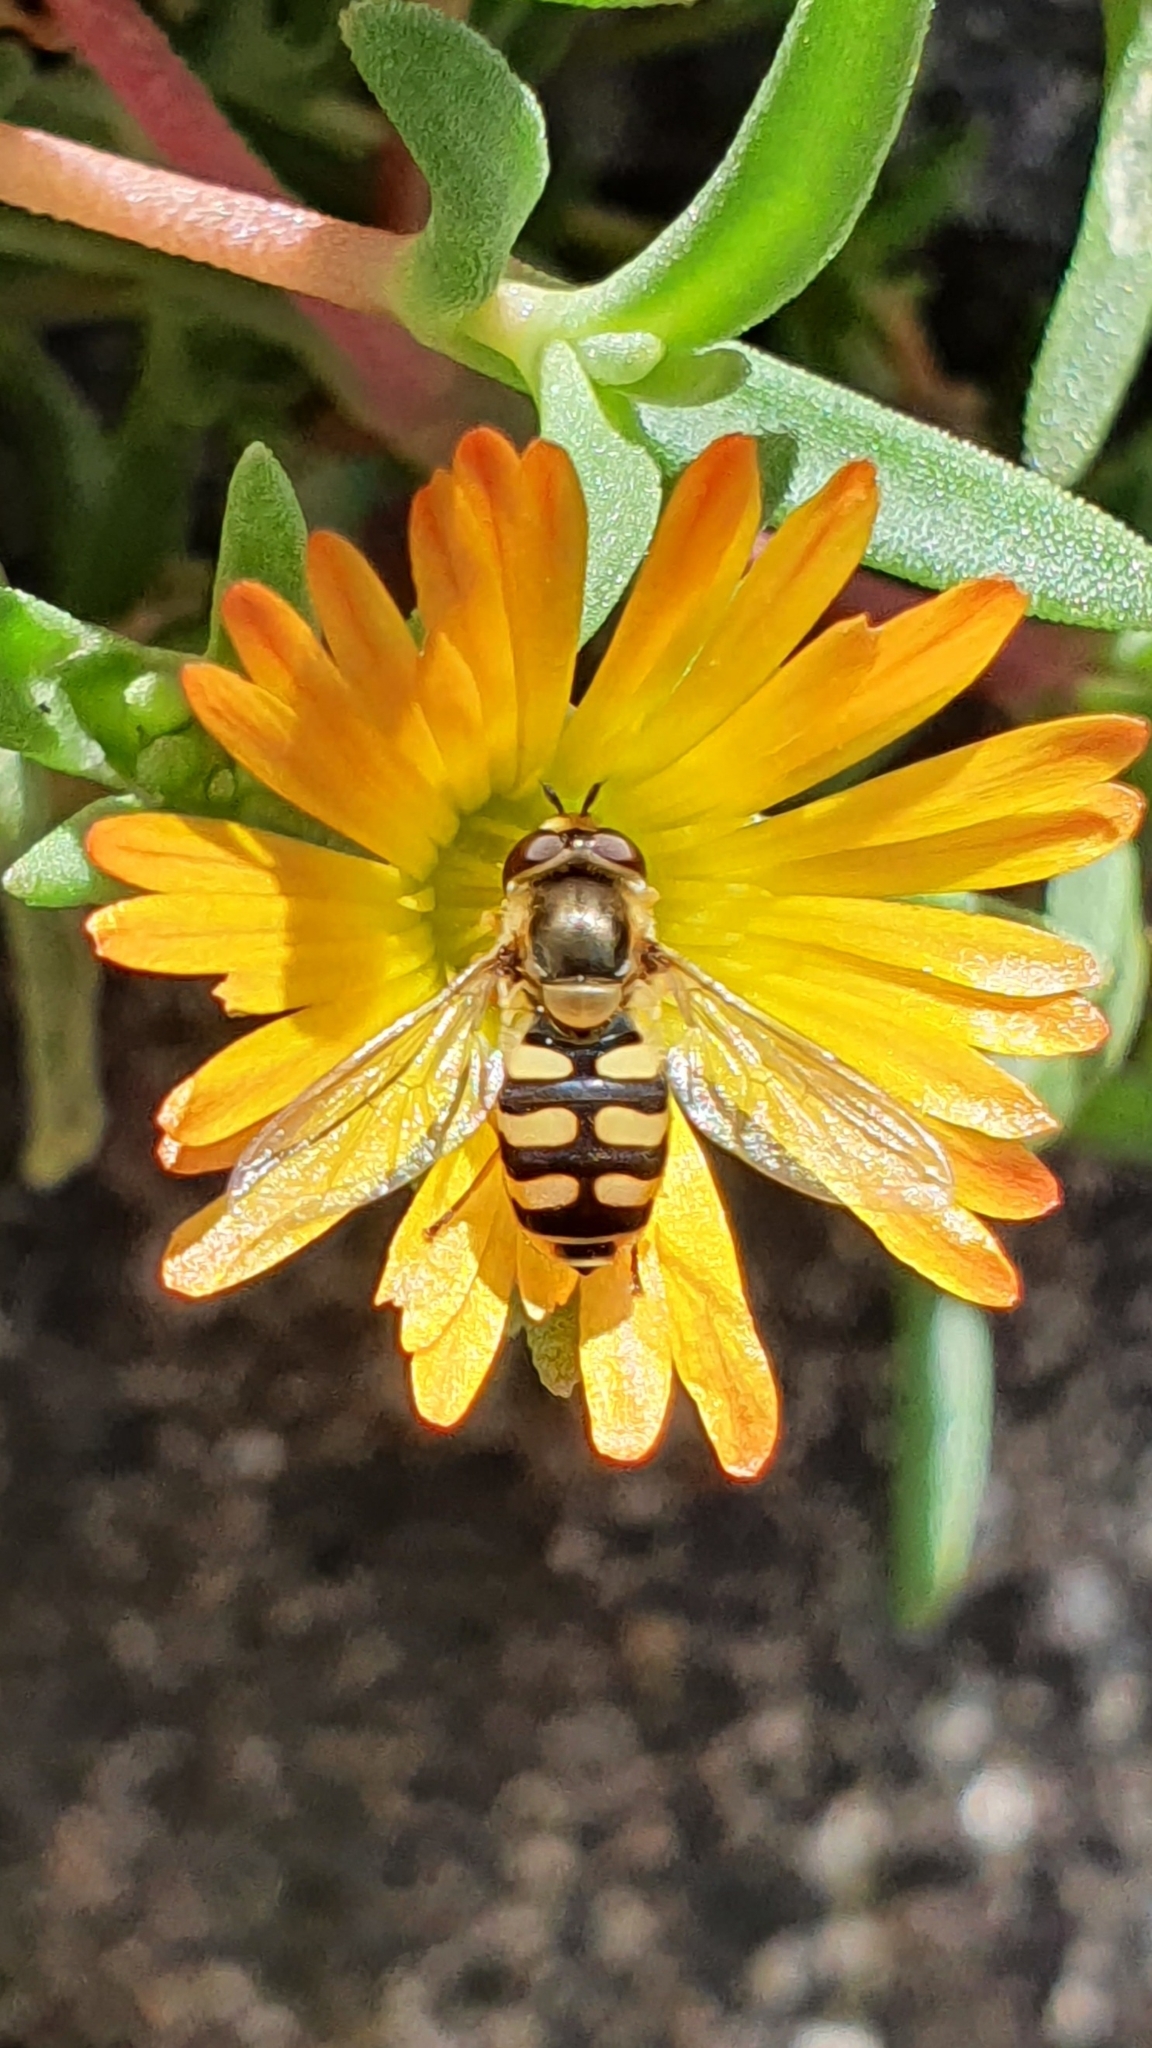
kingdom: Animalia
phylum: Arthropoda
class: Insecta
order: Diptera
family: Syrphidae
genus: Eupeodes
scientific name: Eupeodes corollae
